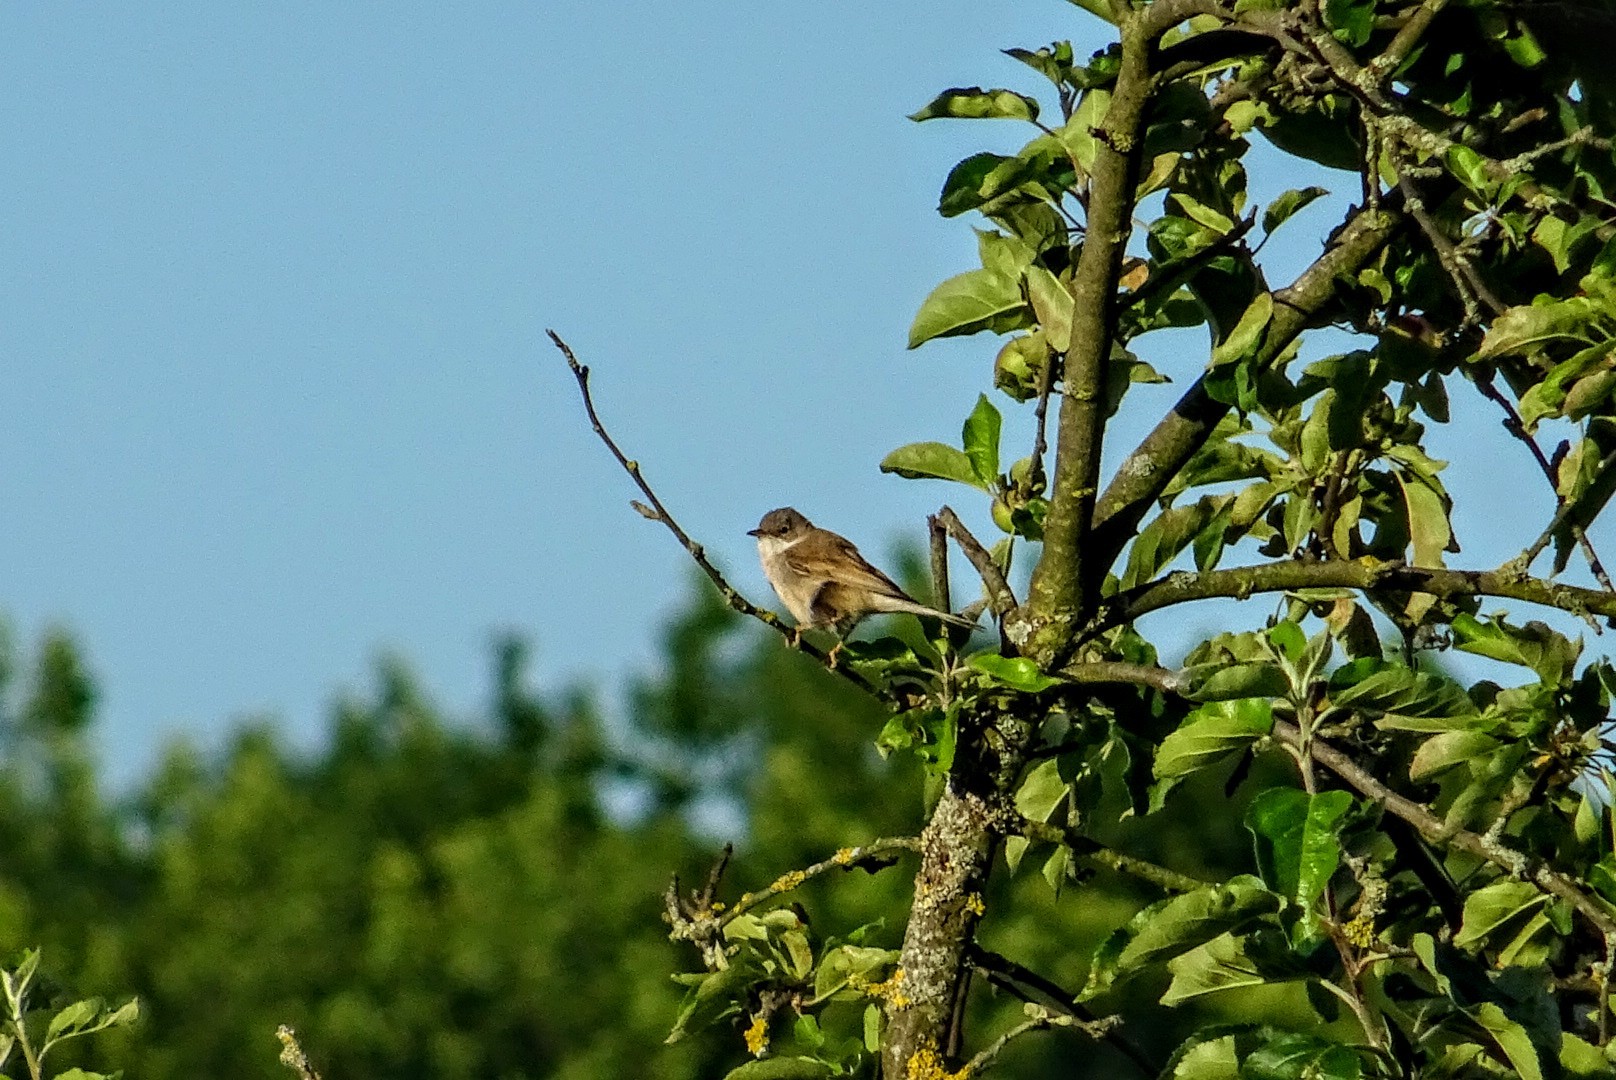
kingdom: Animalia
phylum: Chordata
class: Aves
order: Passeriformes
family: Sylviidae
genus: Sylvia
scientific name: Sylvia communis
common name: Common whitethroat
